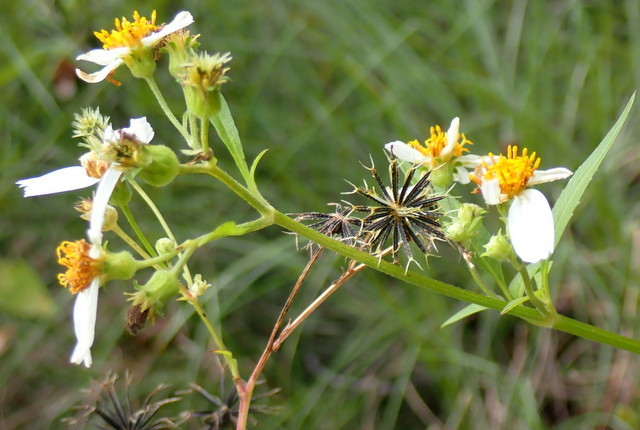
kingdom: Plantae
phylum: Tracheophyta
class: Magnoliopsida
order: Asterales
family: Asteraceae
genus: Bidens
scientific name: Bidens alba
